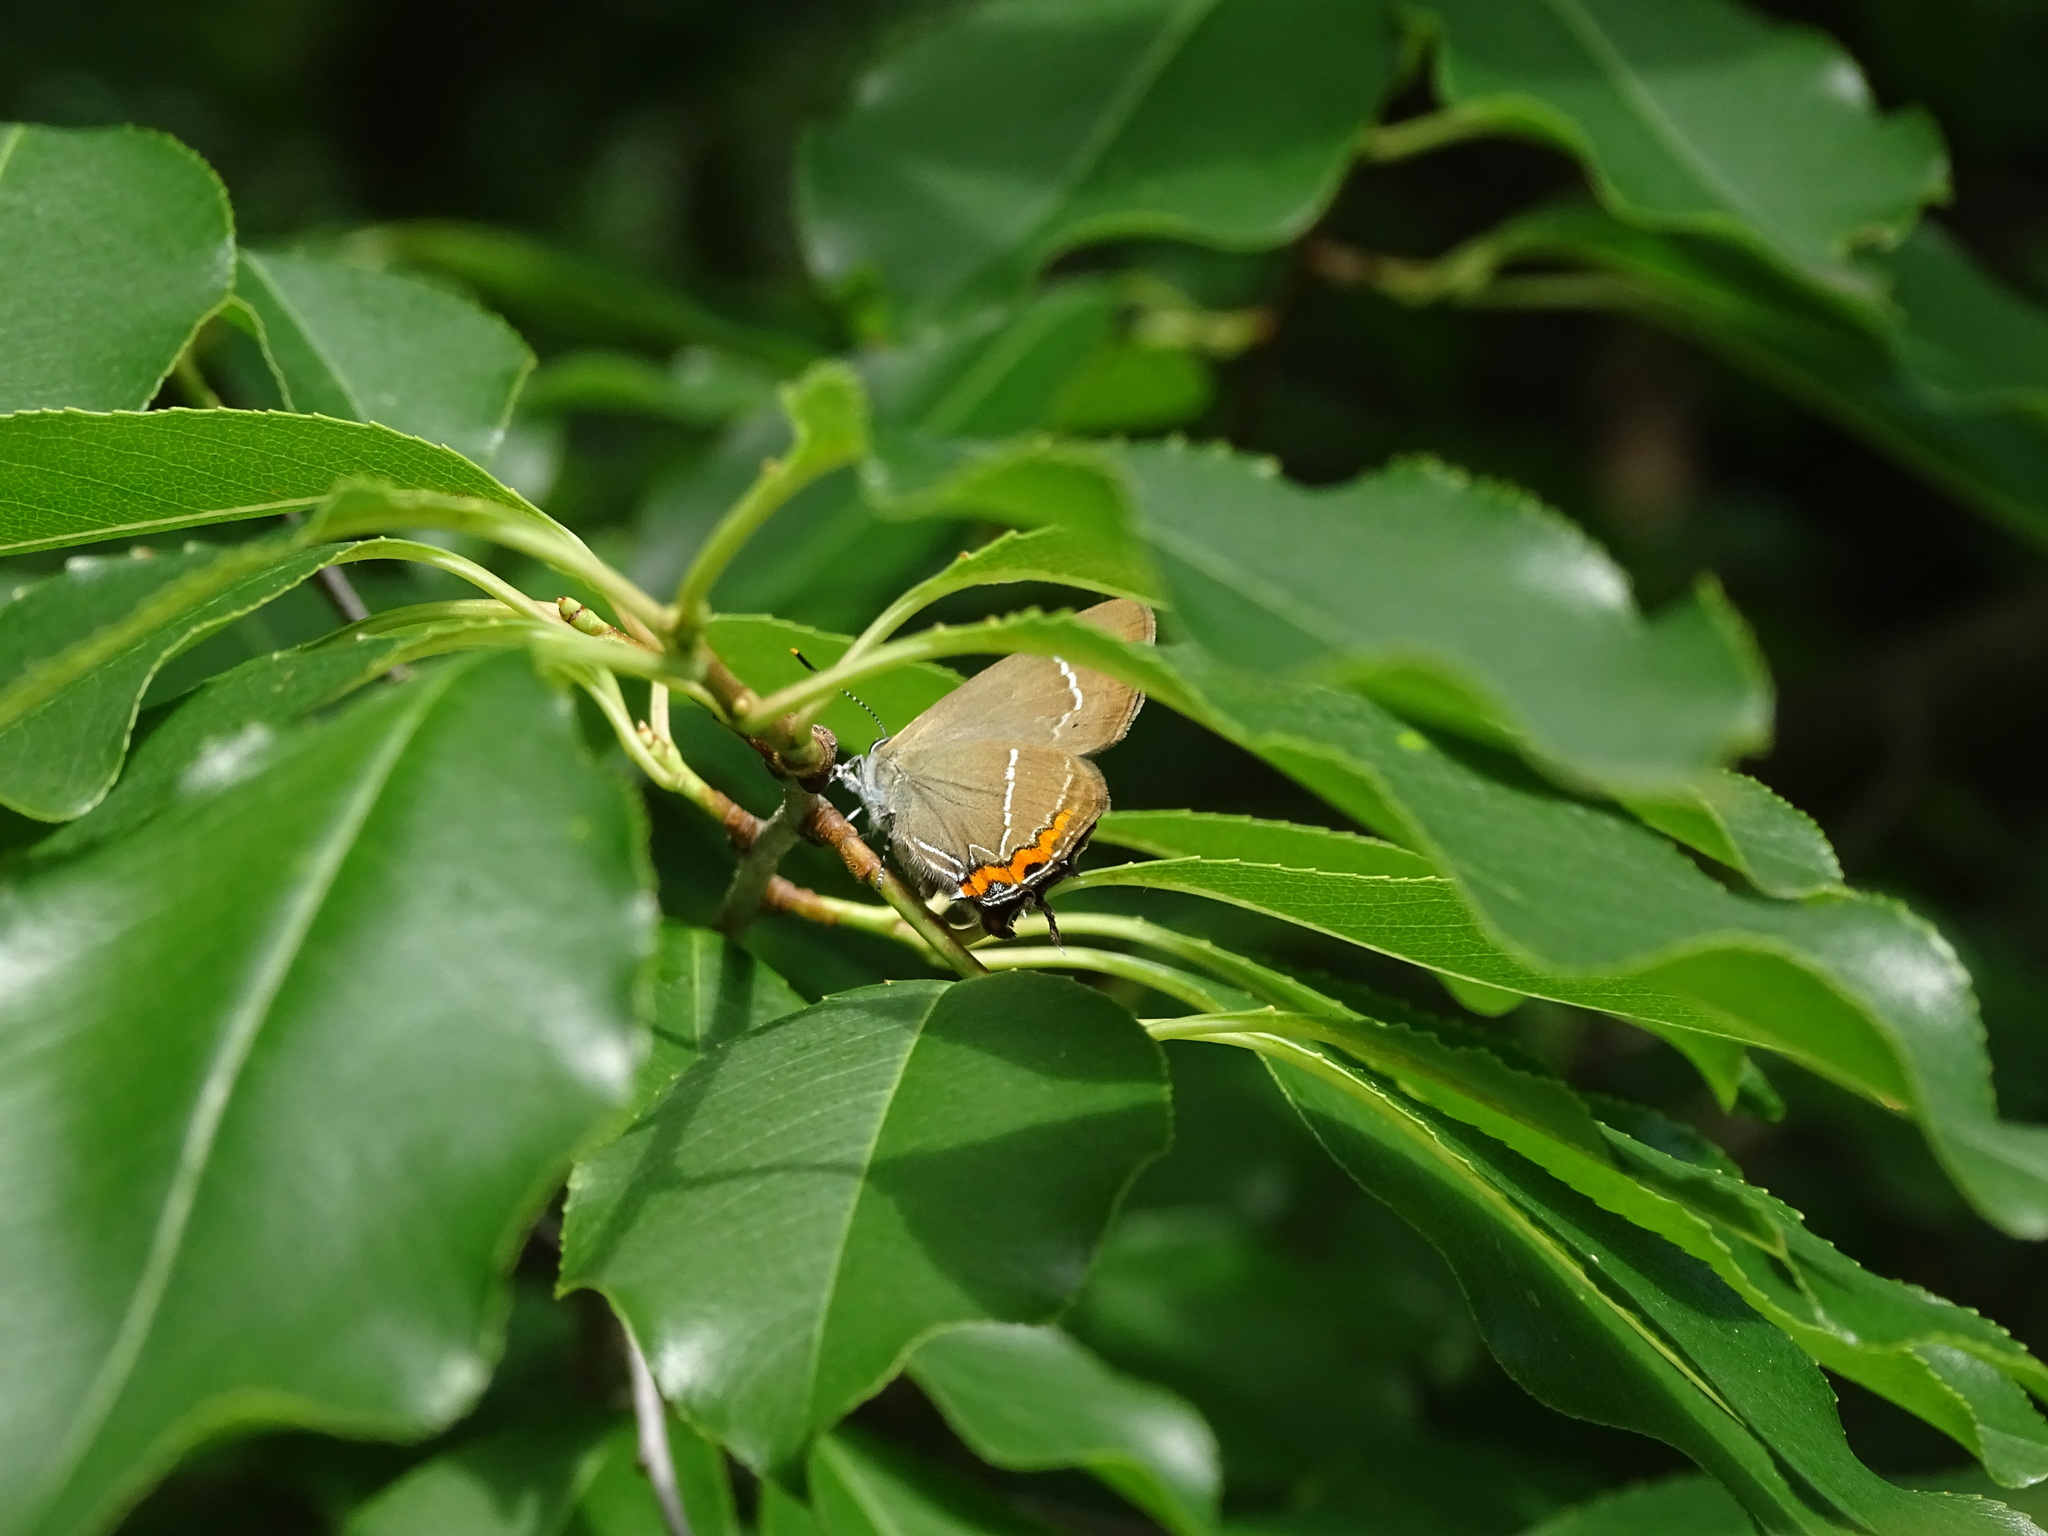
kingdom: Animalia
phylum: Arthropoda
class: Insecta
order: Lepidoptera
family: Lycaenidae
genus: Satyrium
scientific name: Satyrium w-album
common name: White-letter hairstreak
